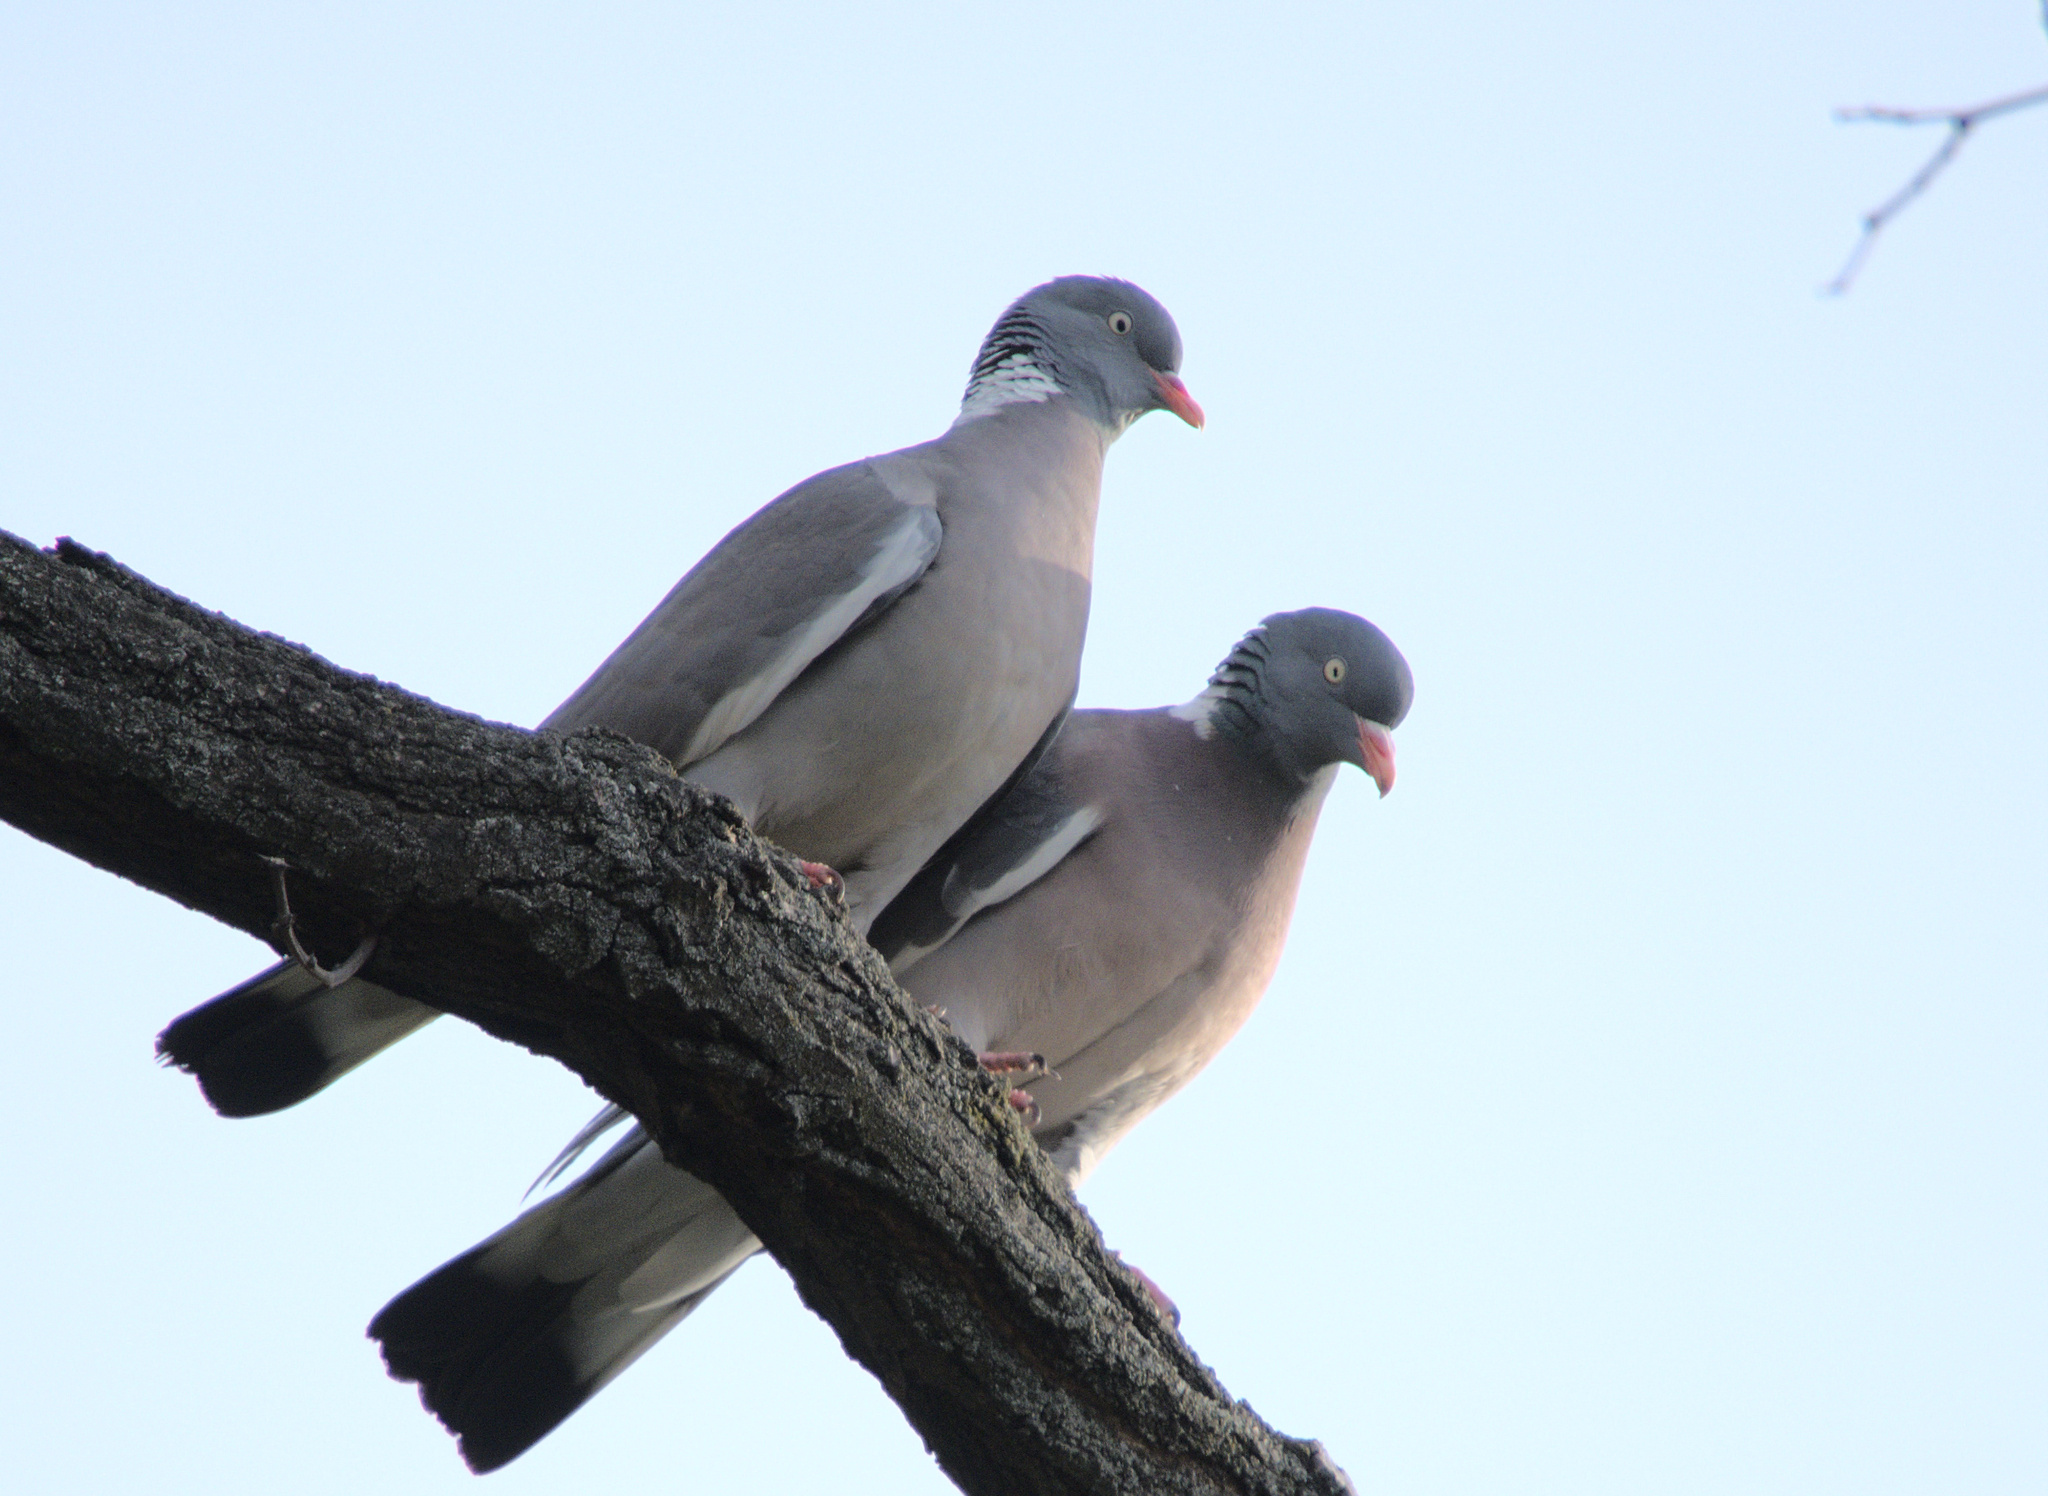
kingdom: Animalia
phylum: Chordata
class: Aves
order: Columbiformes
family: Columbidae
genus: Columba
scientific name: Columba palumbus
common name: Common wood pigeon
